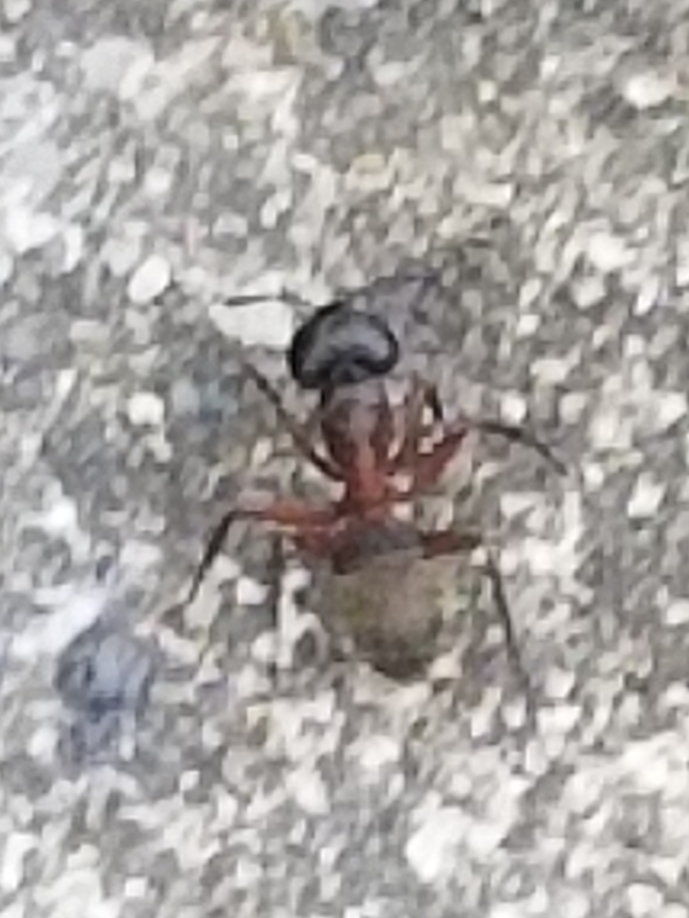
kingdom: Animalia
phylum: Arthropoda
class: Insecta
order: Hymenoptera
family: Formicidae
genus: Camponotus
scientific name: Camponotus chromaiodes
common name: Red carpenter ant
